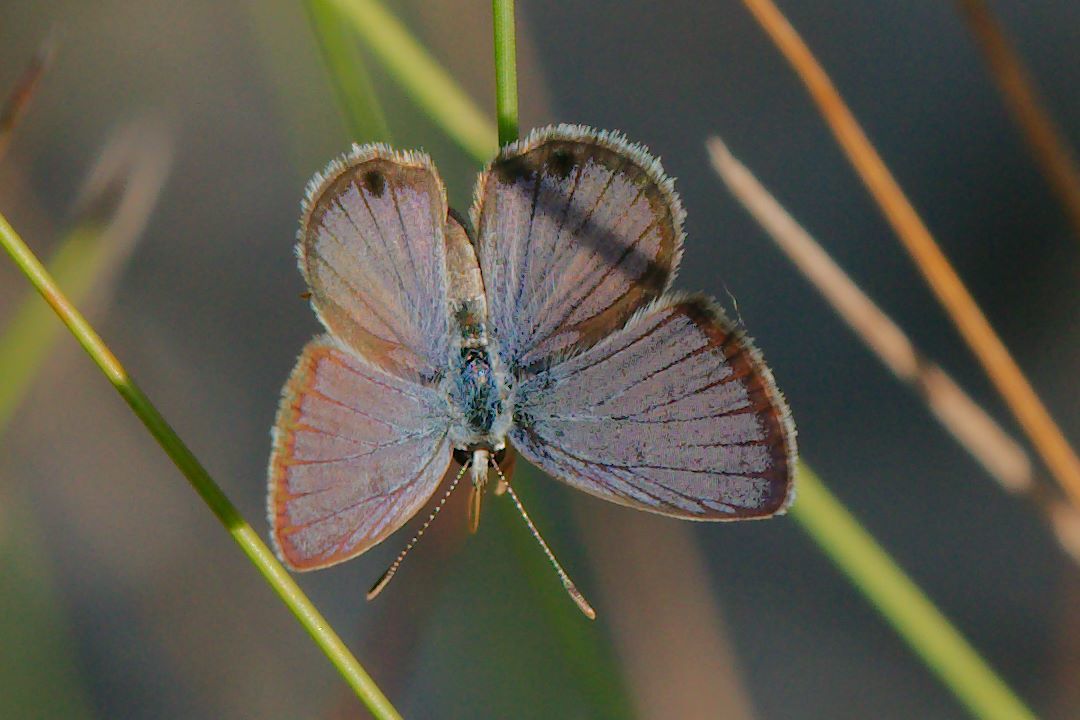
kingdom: Animalia
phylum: Arthropoda
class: Insecta
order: Lepidoptera
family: Lycaenidae
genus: Hemiargus
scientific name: Hemiargus ceraunus
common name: Ceraunus blue
